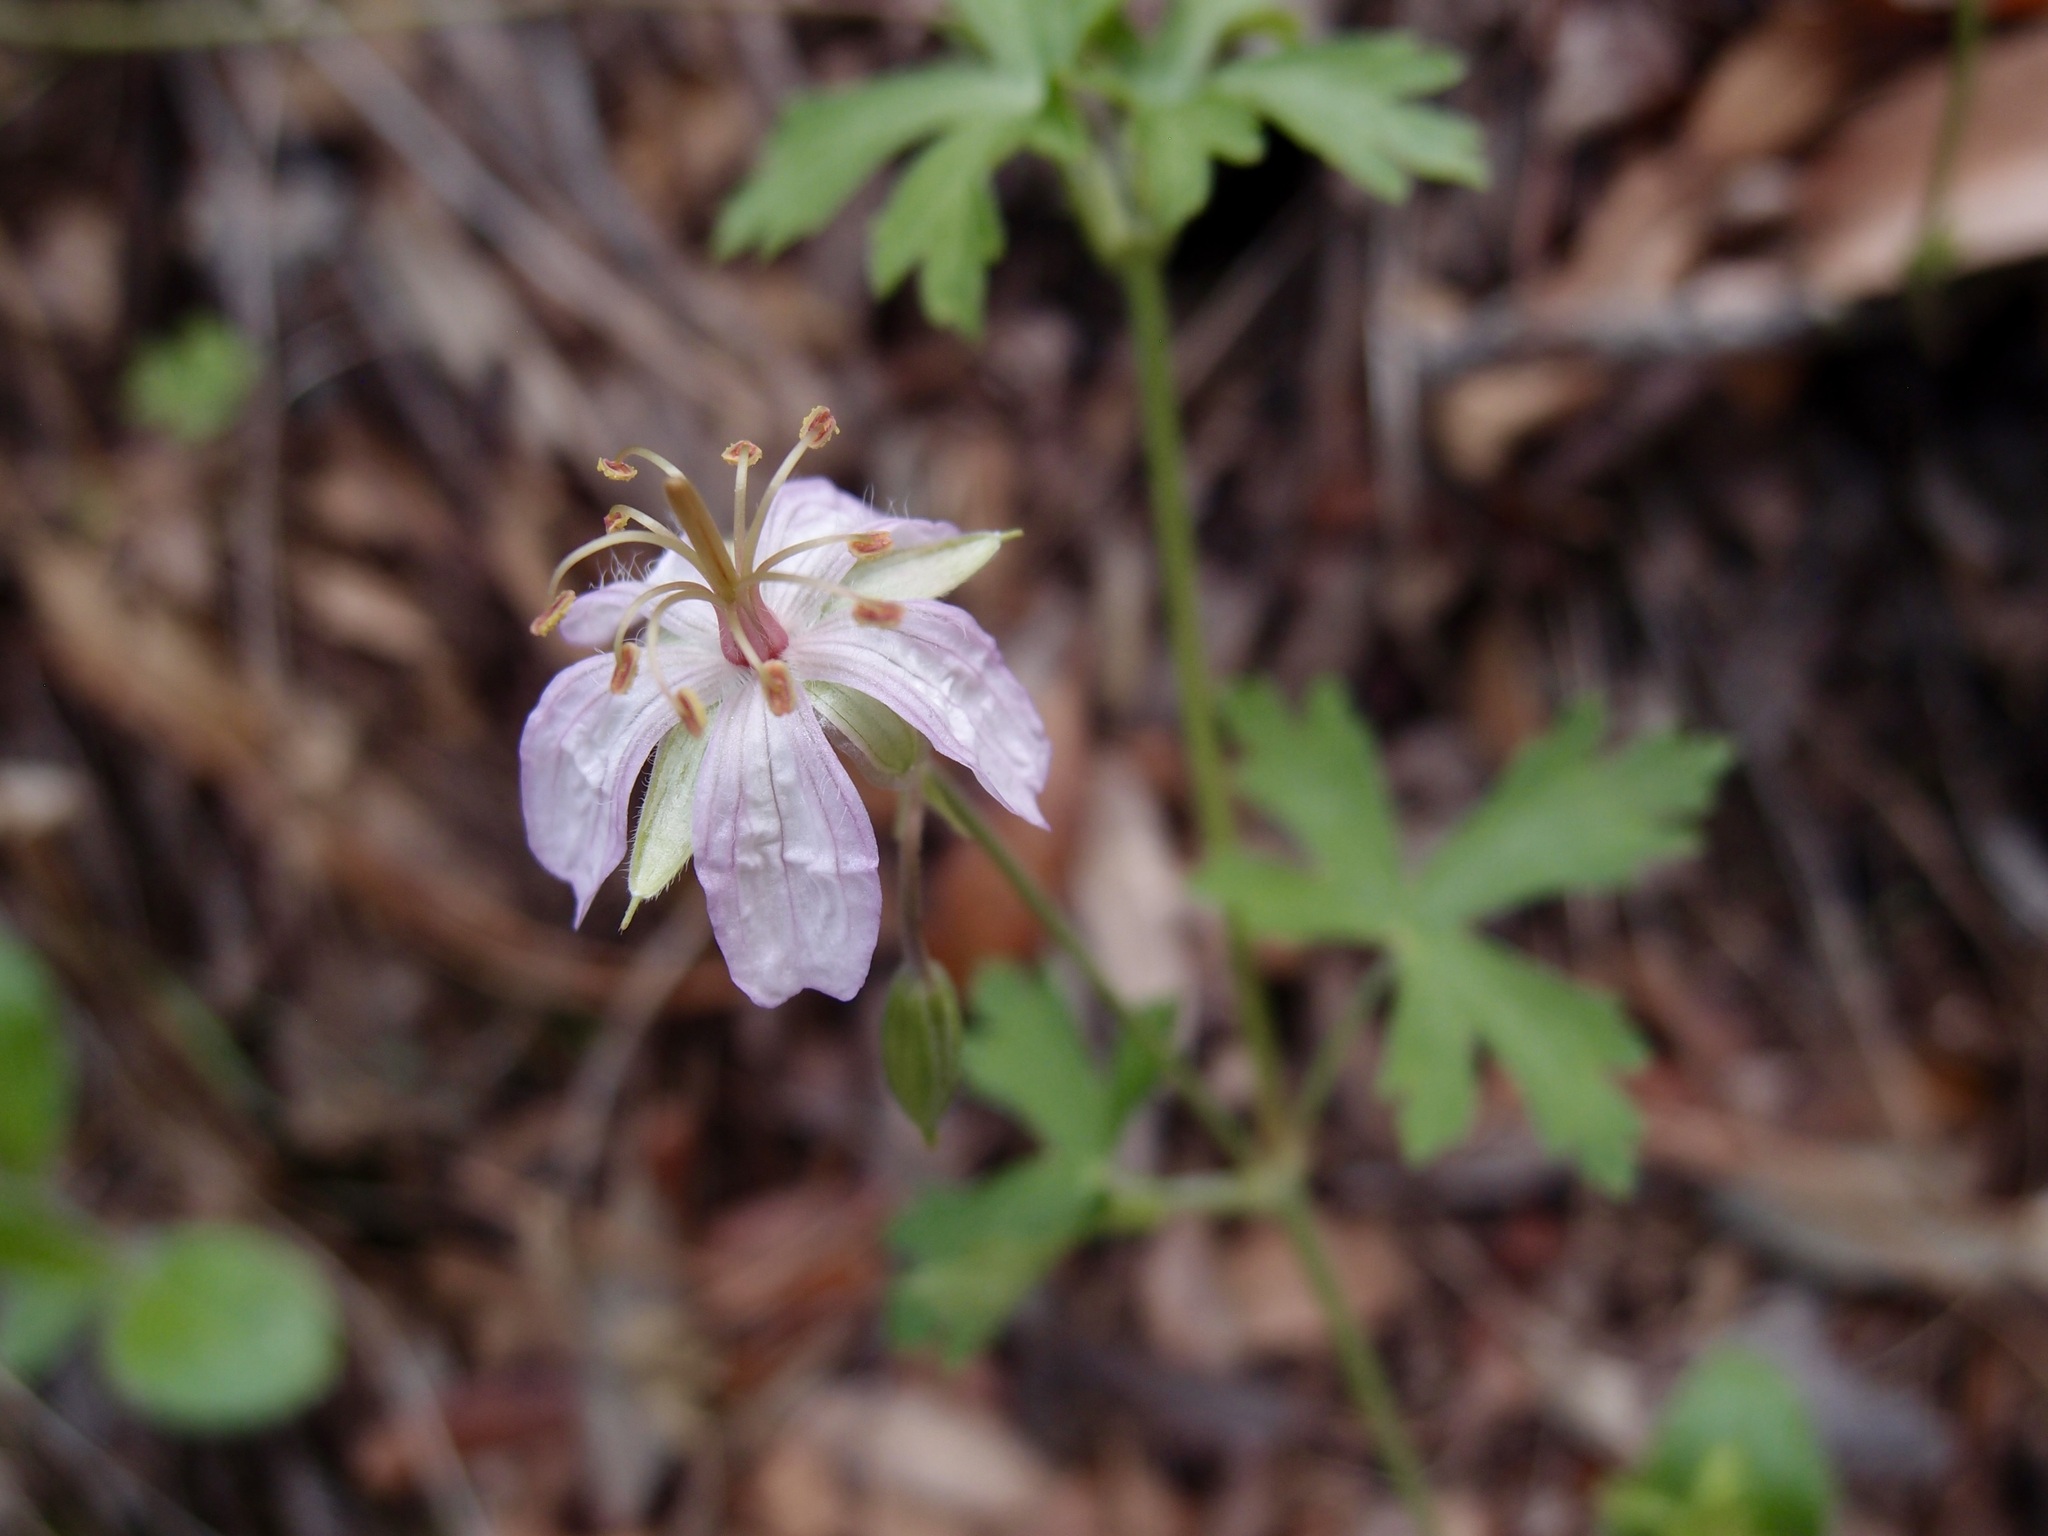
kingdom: Plantae
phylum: Tracheophyta
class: Magnoliopsida
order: Geraniales
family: Geraniaceae
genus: Geranium
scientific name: Geranium caespitosum
